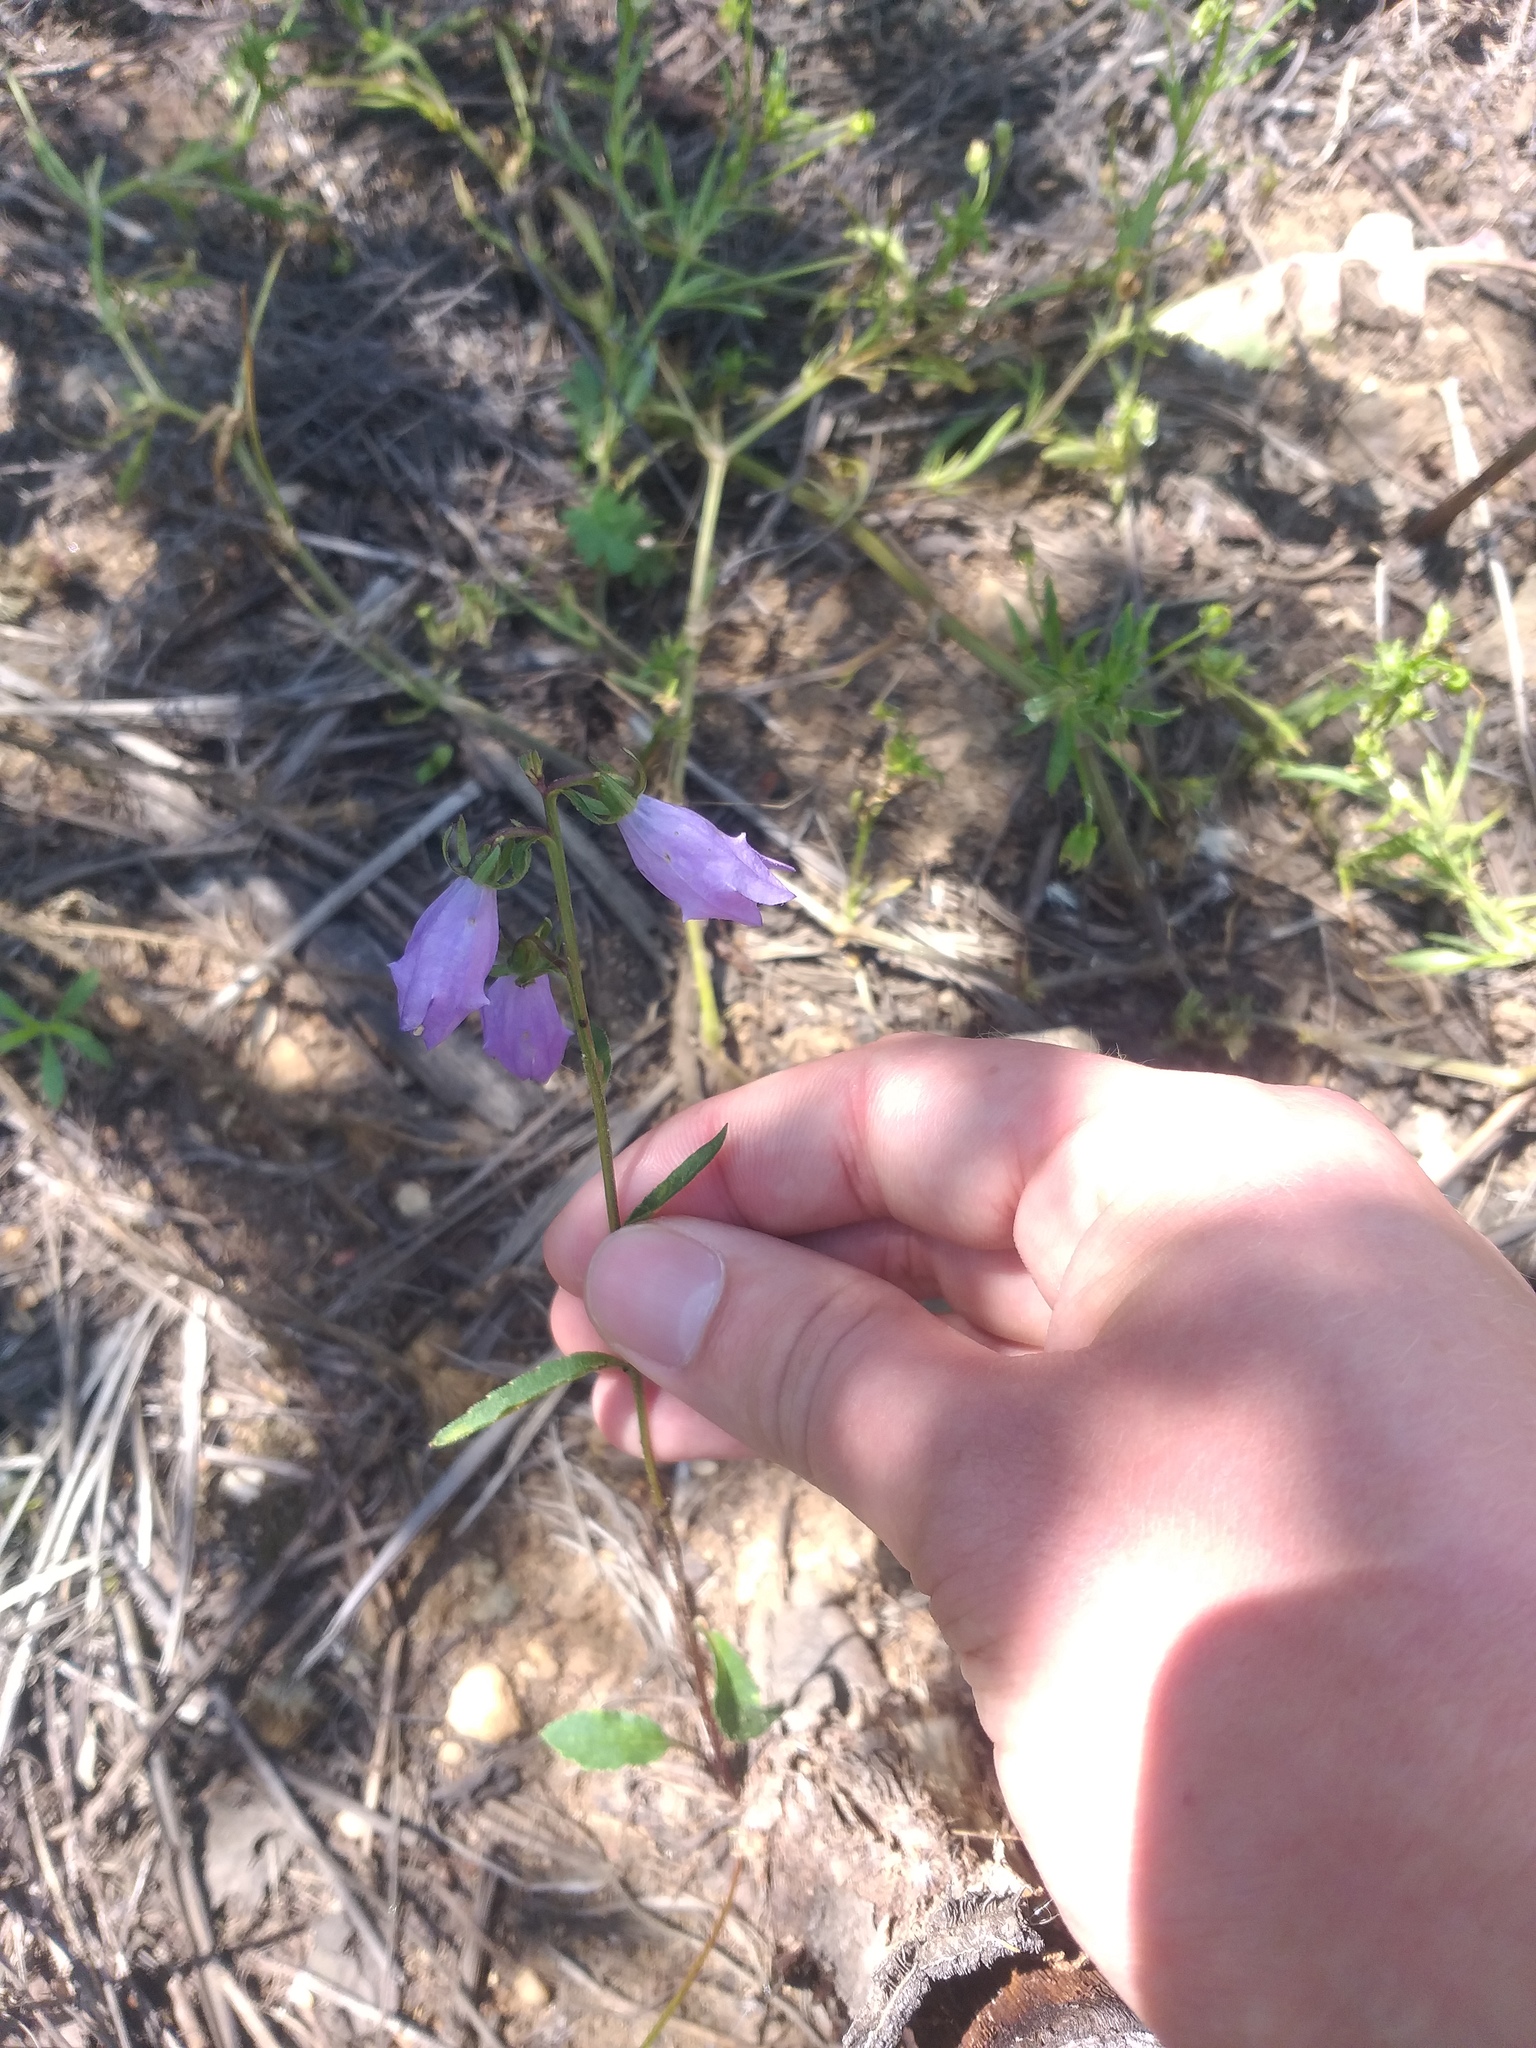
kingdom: Plantae
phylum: Tracheophyta
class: Magnoliopsida
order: Asterales
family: Campanulaceae
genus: Campanula
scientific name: Campanula rapunculoides
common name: Creeping bellflower
